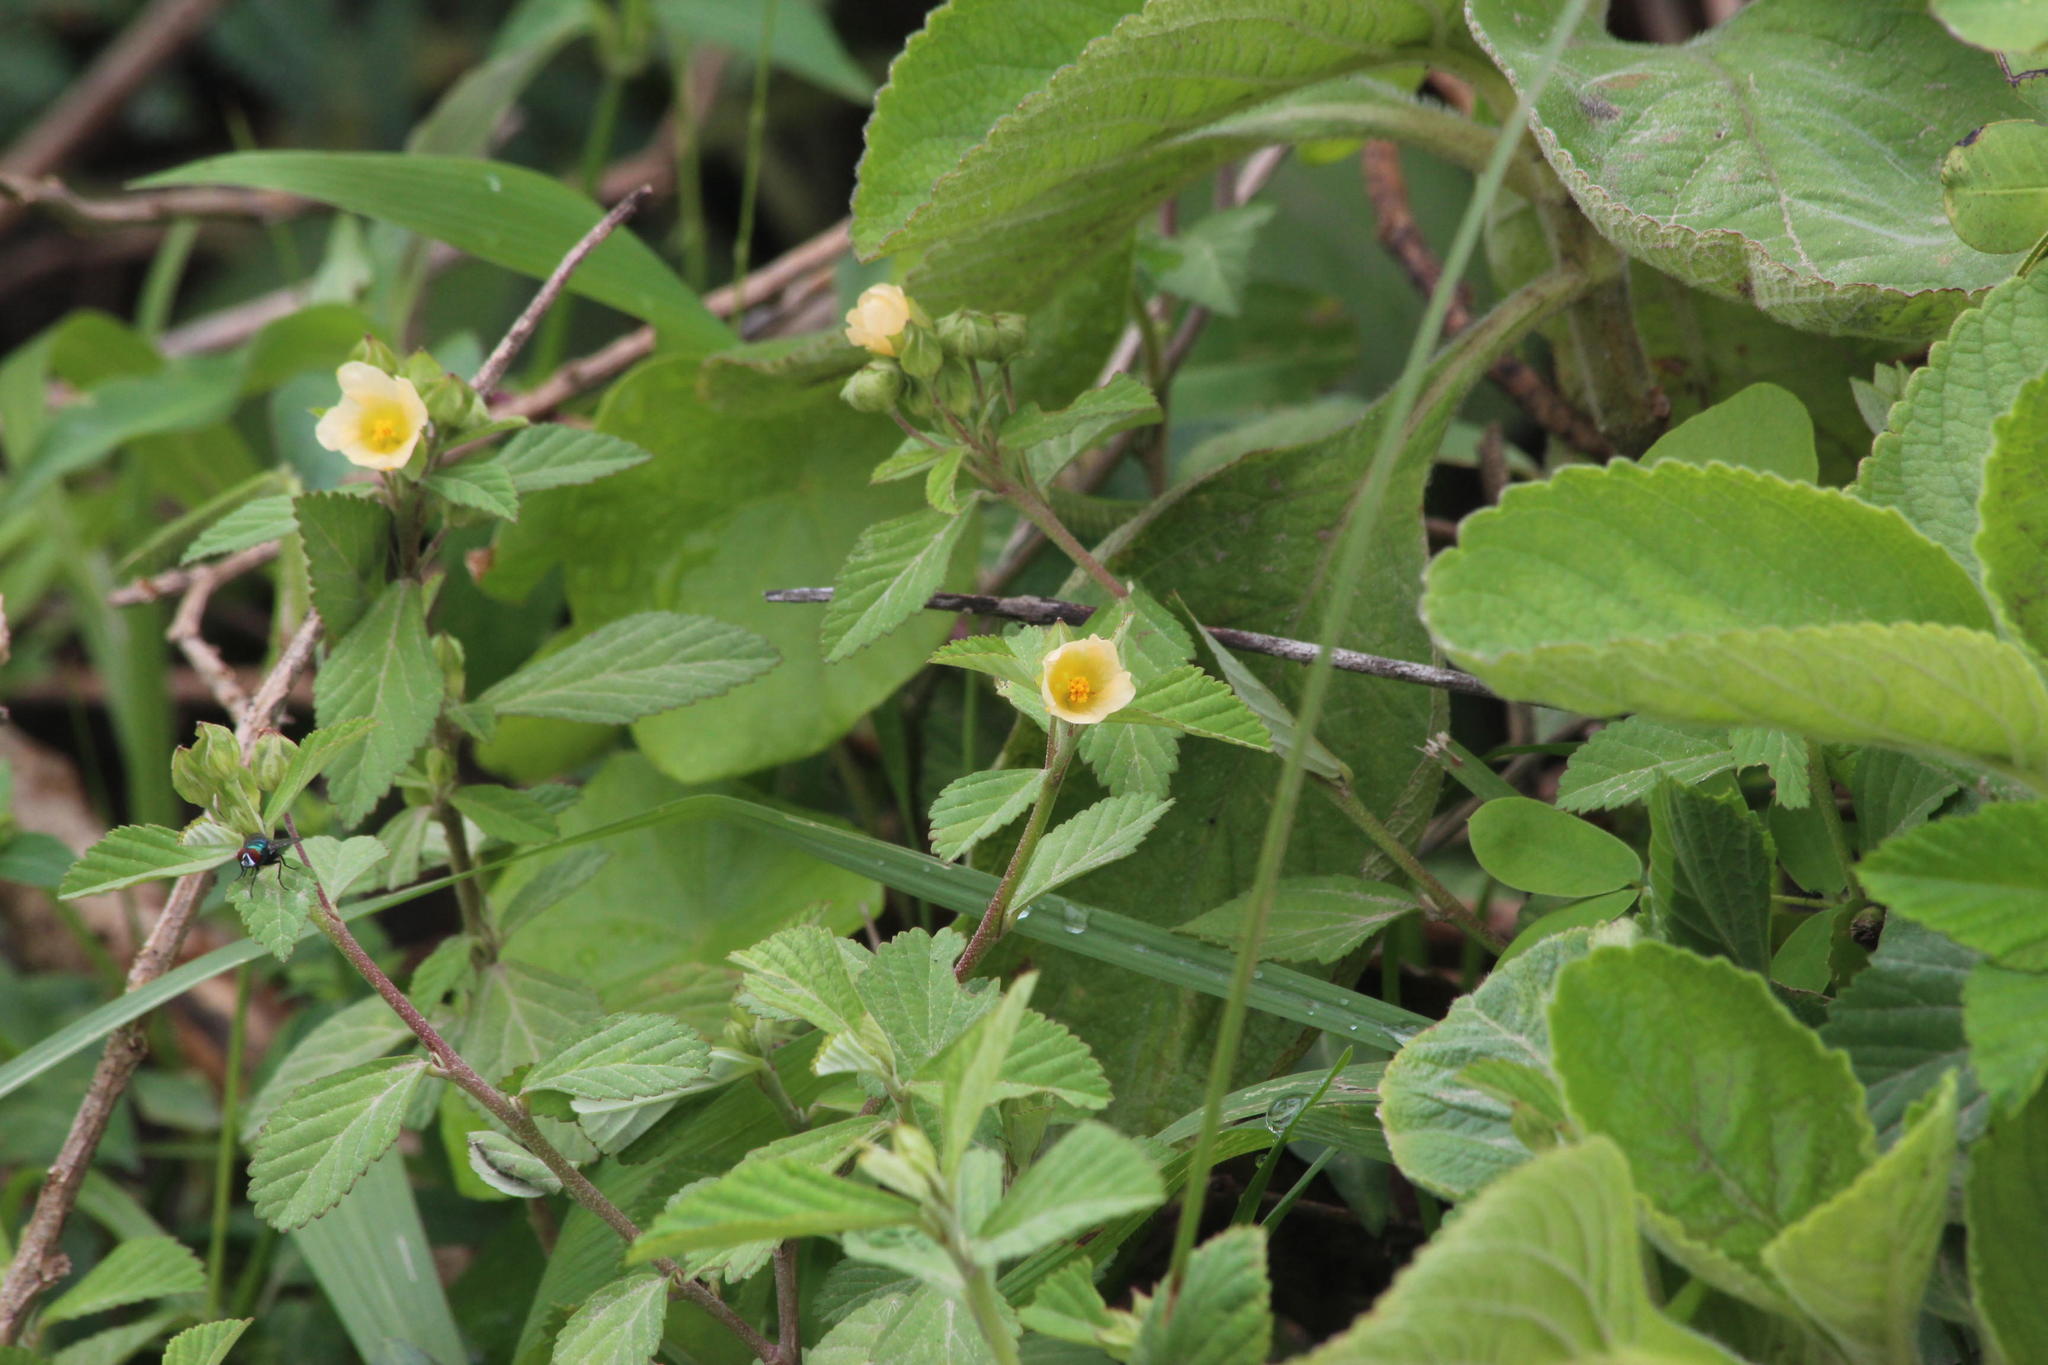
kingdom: Plantae
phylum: Tracheophyta
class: Magnoliopsida
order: Malvales
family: Malvaceae
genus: Sida
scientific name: Sida rhombifolia
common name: Queensland-hemp
